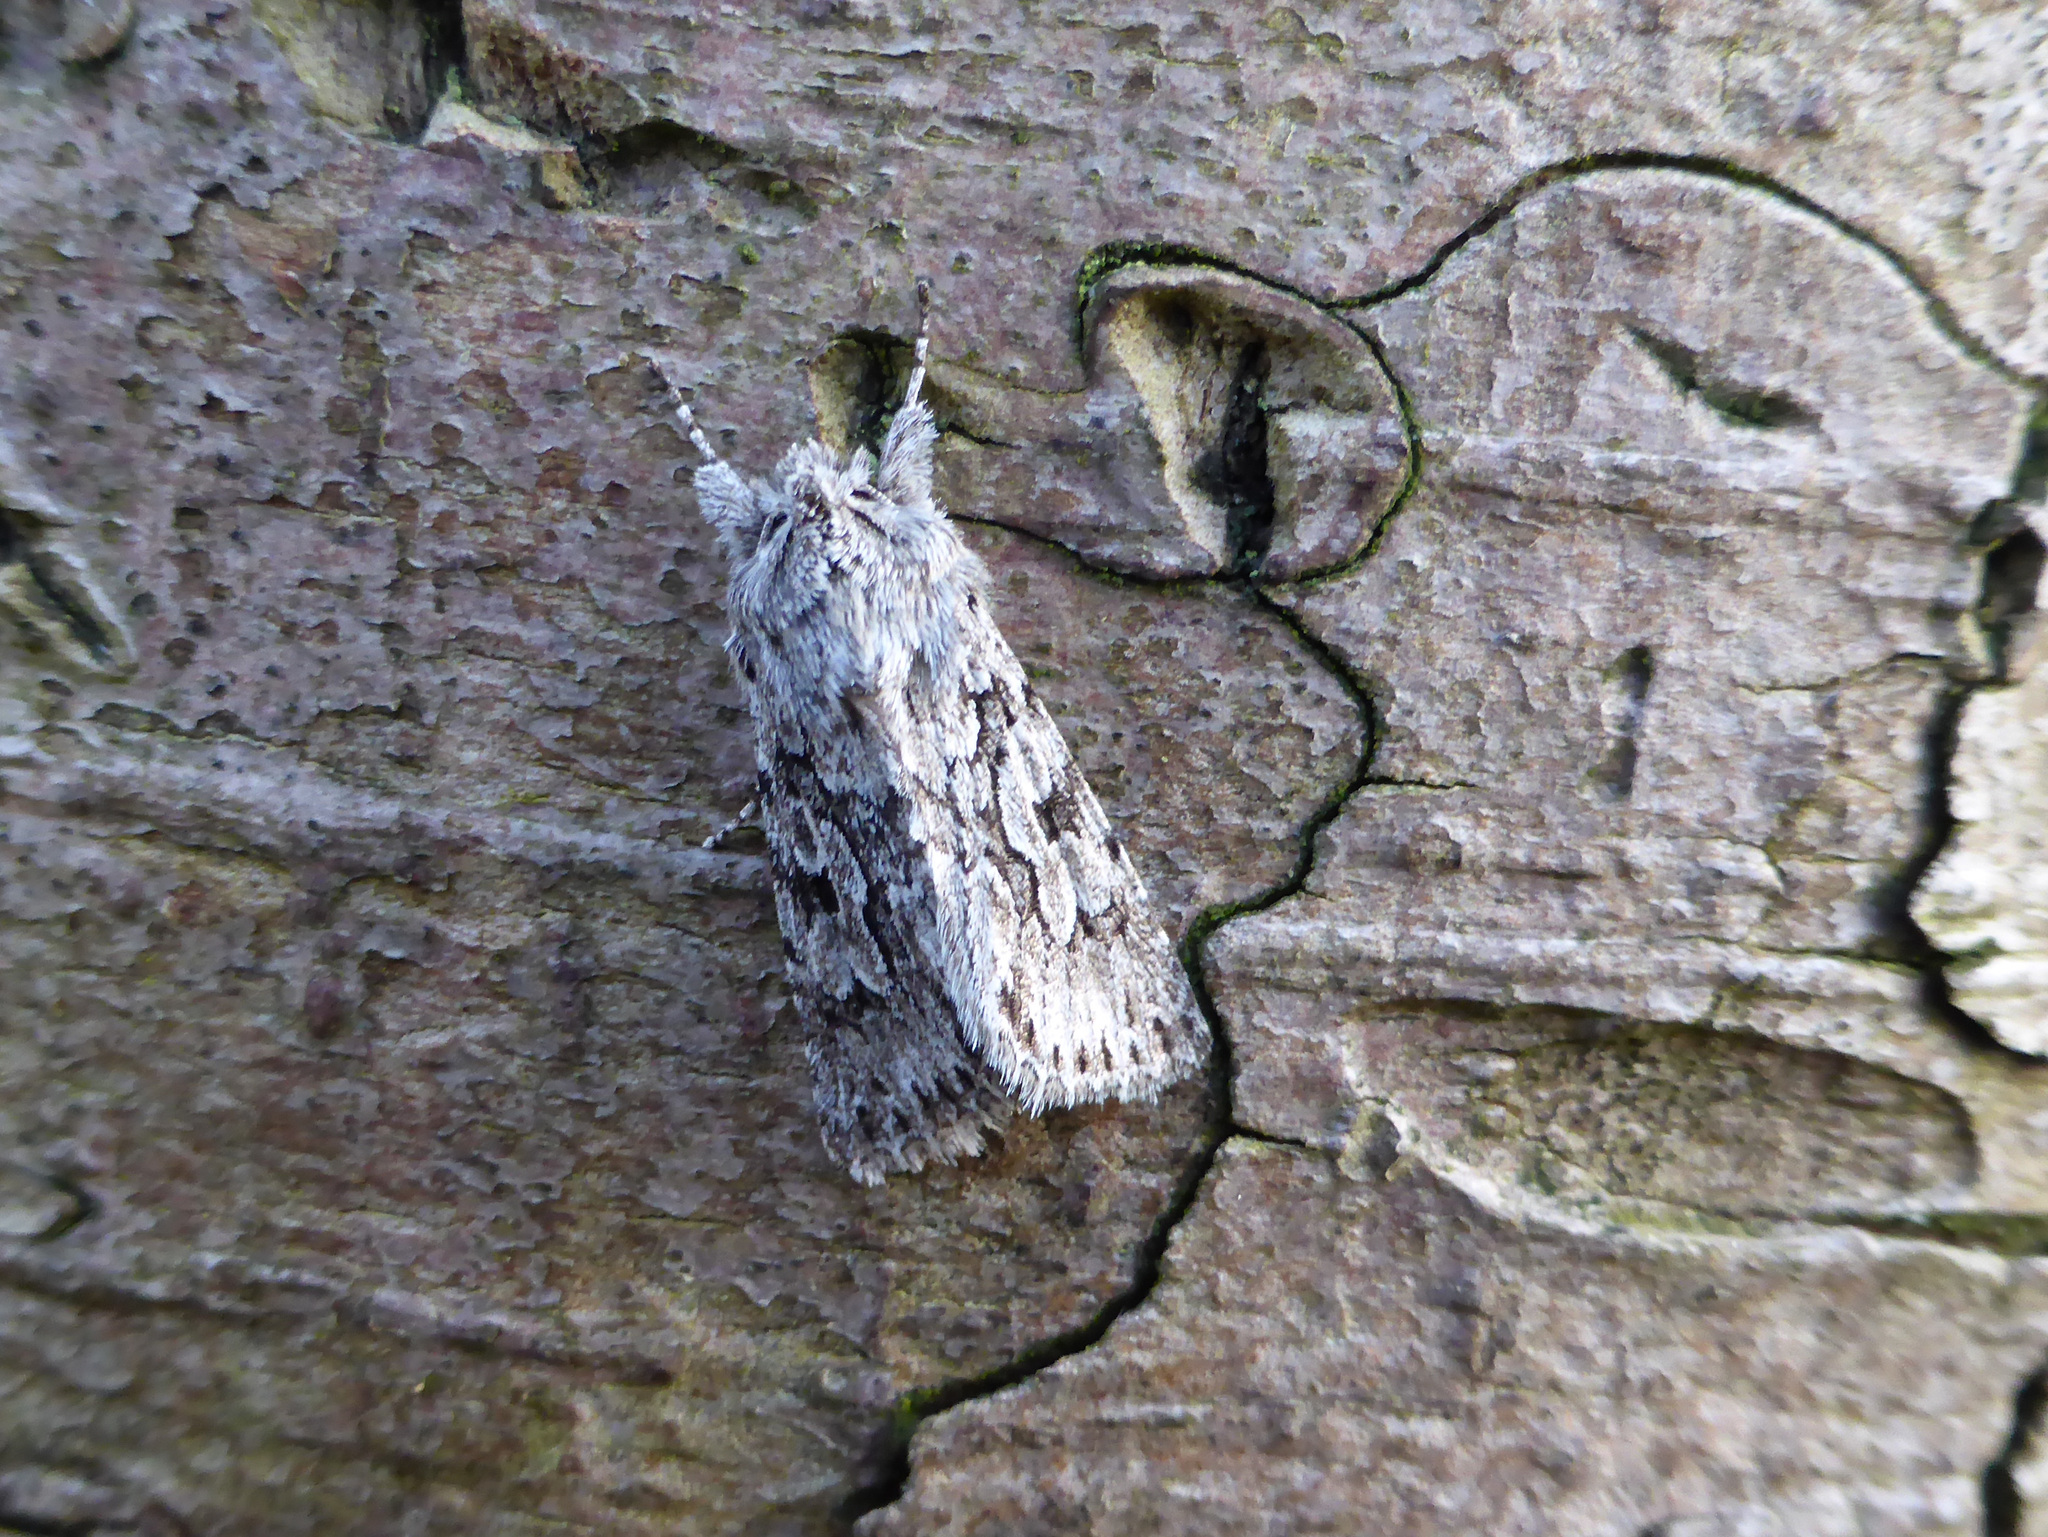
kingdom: Animalia
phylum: Arthropoda
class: Insecta
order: Lepidoptera
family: Noctuidae
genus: Xylocampa
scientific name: Xylocampa areola
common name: Early grey
